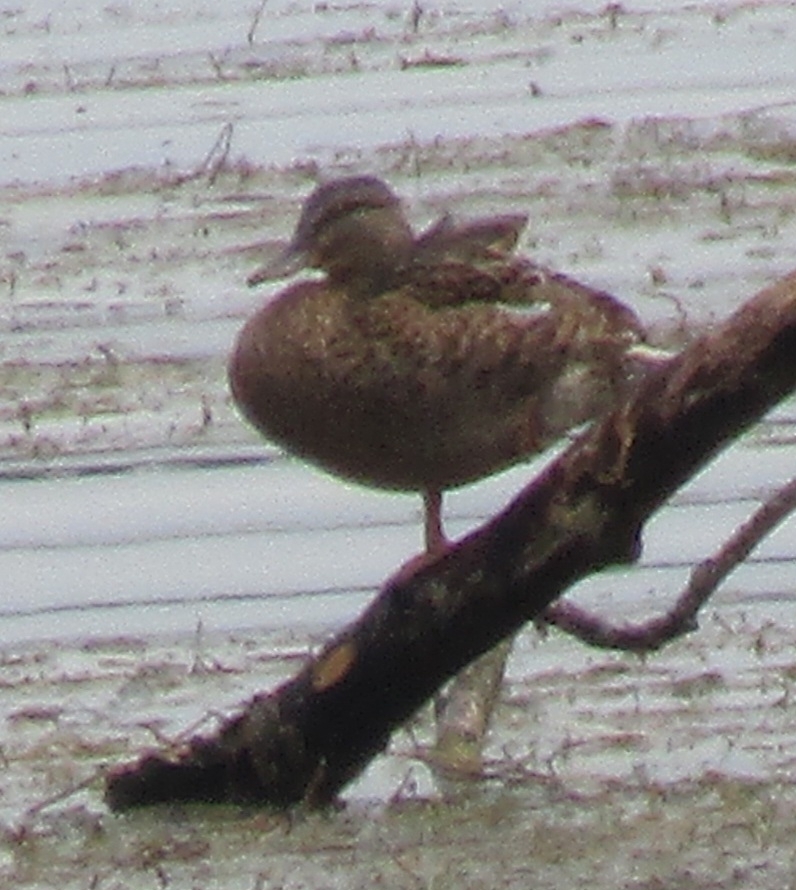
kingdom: Animalia
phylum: Chordata
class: Aves
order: Anseriformes
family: Anatidae
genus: Anas
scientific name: Anas platyrhynchos
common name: Mallard
